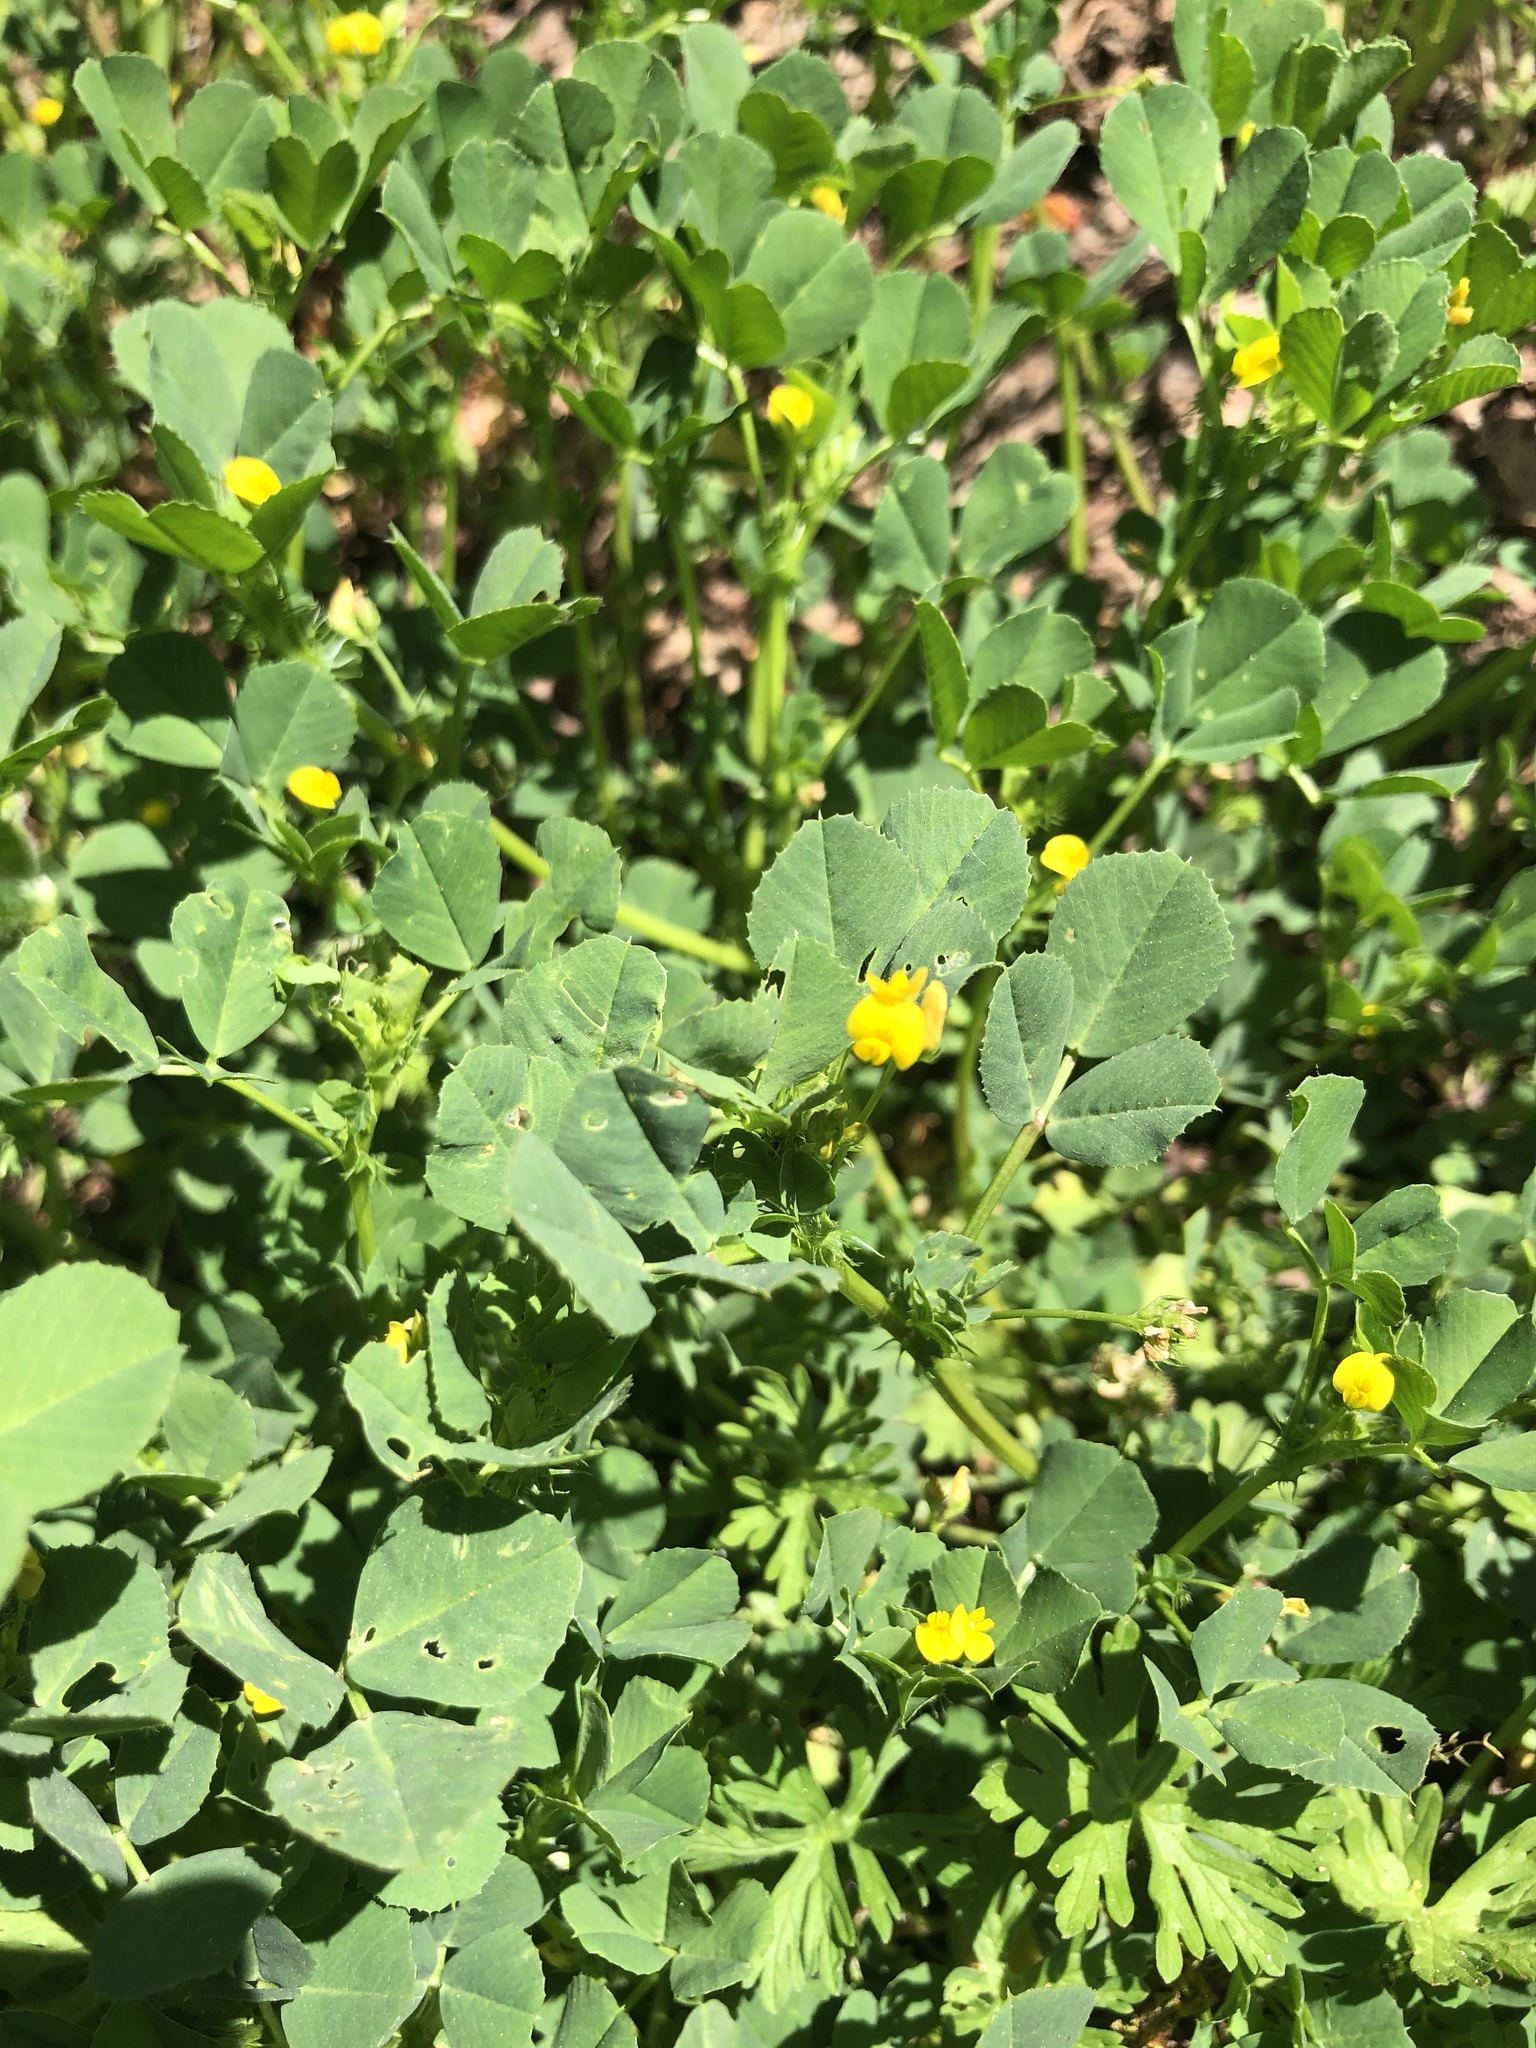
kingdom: Plantae
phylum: Tracheophyta
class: Magnoliopsida
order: Fabales
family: Fabaceae
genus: Medicago
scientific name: Medicago polymorpha
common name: Burclover
